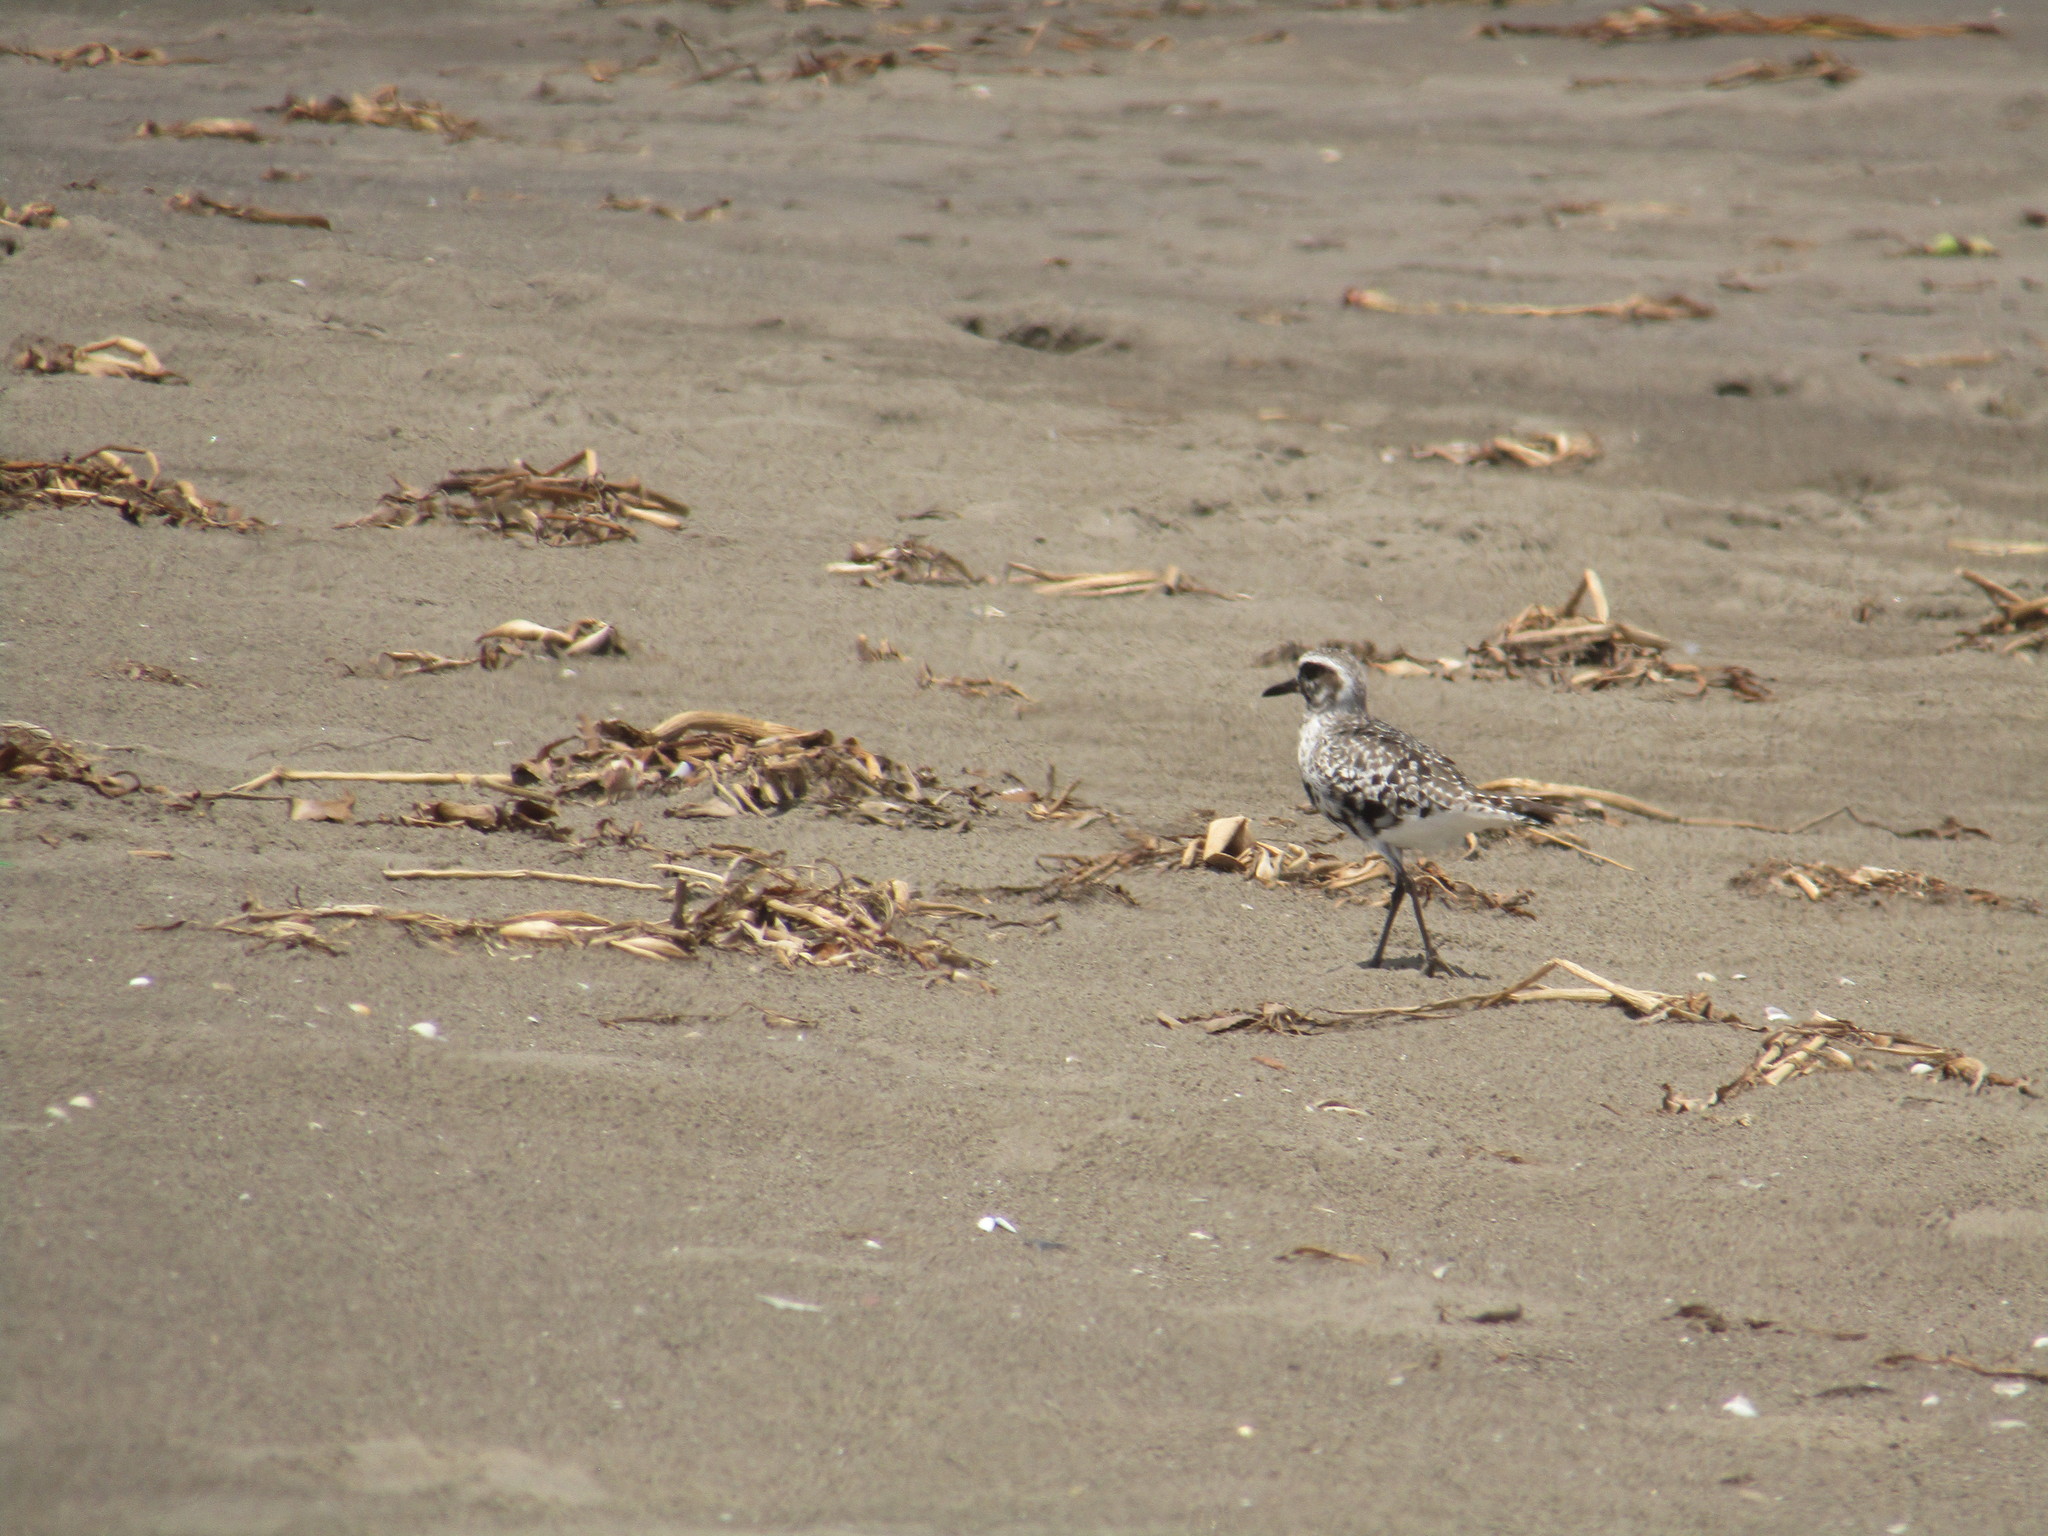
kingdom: Animalia
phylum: Chordata
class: Aves
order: Charadriiformes
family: Charadriidae
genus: Pluvialis
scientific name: Pluvialis squatarola
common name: Grey plover
